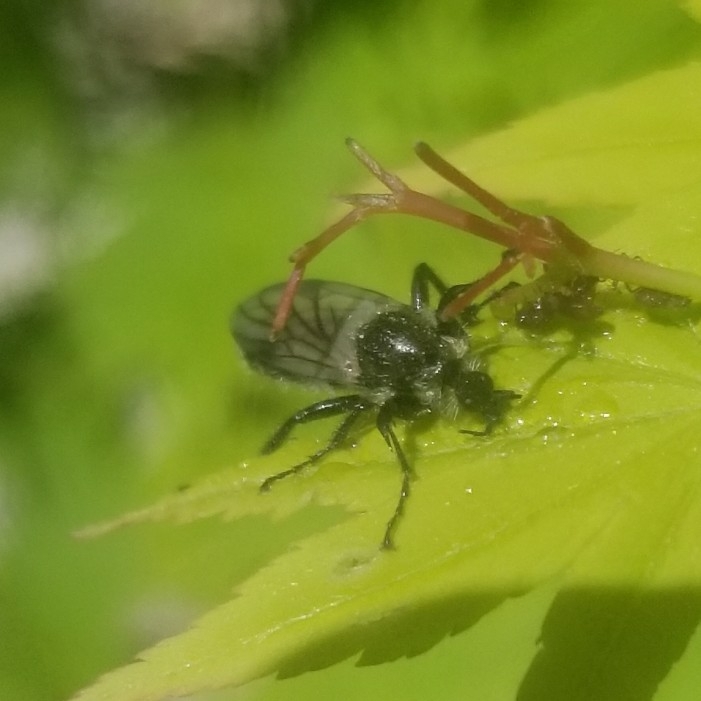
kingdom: Animalia
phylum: Arthropoda
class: Insecta
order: Diptera
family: Bibionidae
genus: Bibio
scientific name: Bibio albipennis
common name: White-winged march fly
